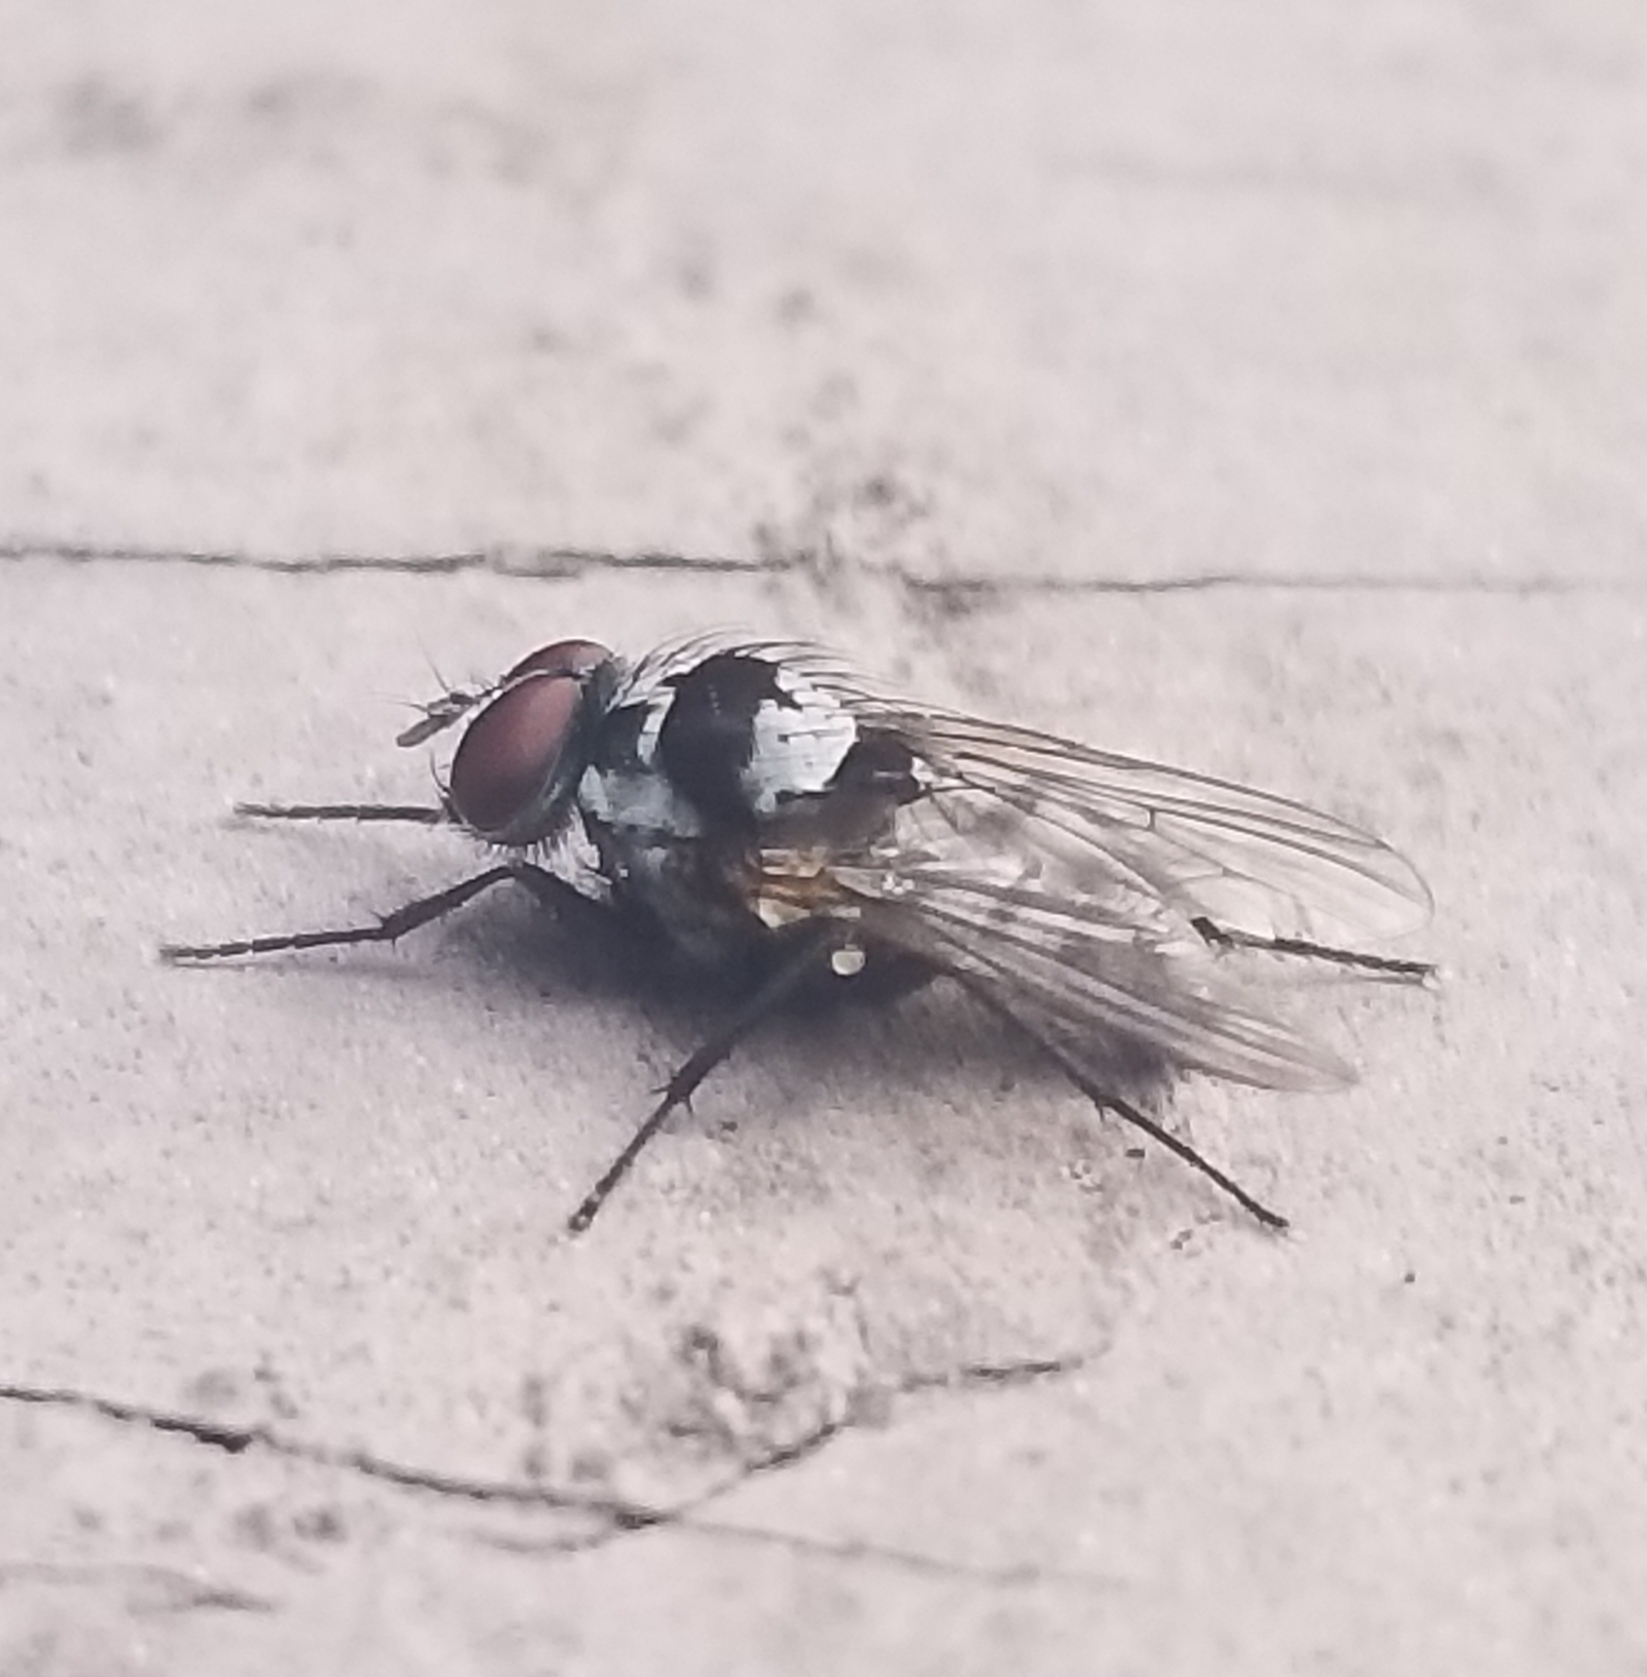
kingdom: Animalia
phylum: Arthropoda
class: Insecta
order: Diptera
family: Anthomyiidae
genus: Anthomyia
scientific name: Anthomyia oculifera
